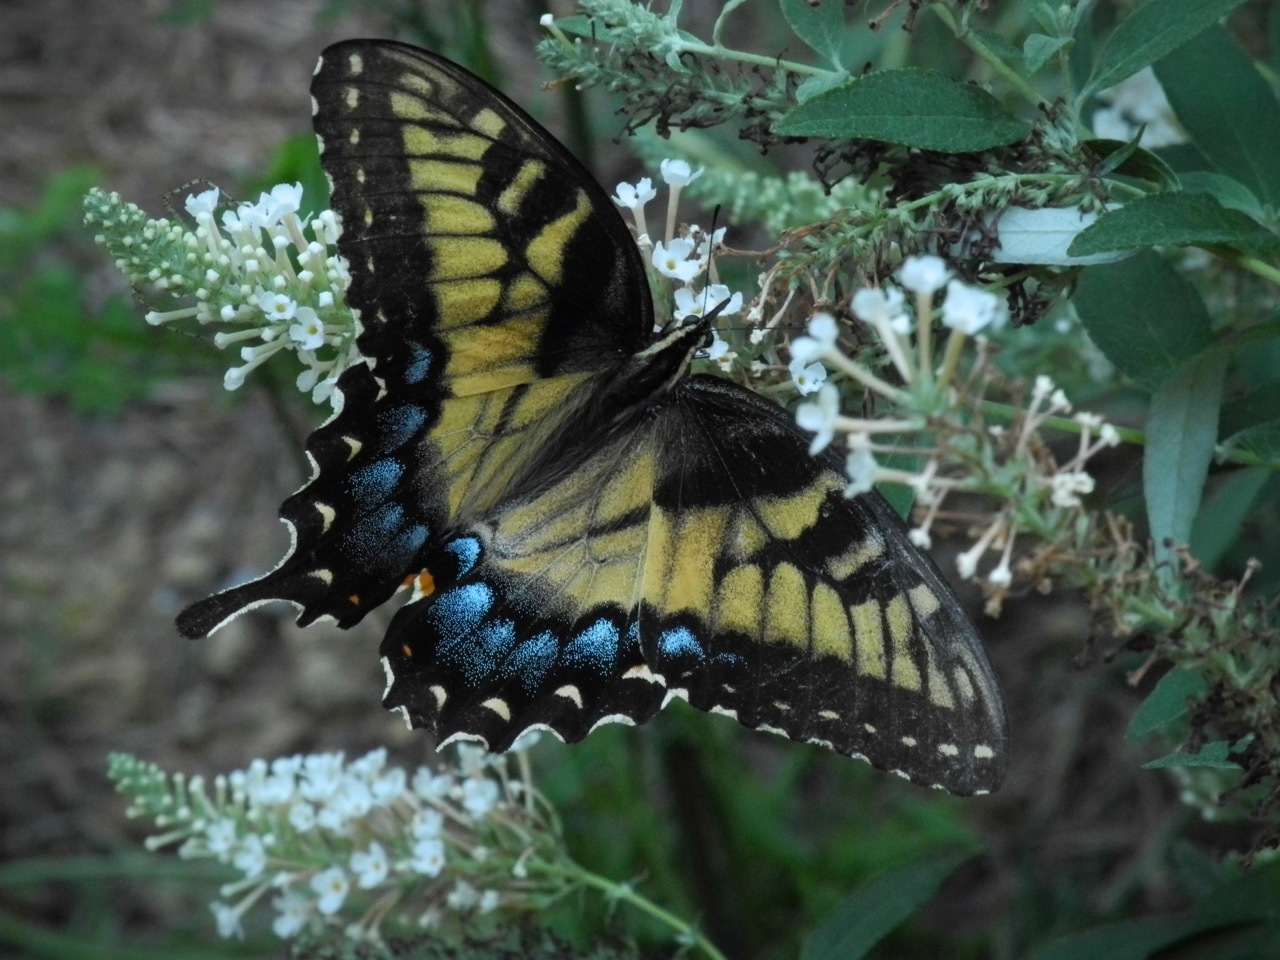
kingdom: Animalia
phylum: Arthropoda
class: Insecta
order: Lepidoptera
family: Papilionidae
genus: Papilio
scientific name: Papilio glaucus
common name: Tiger swallowtail
